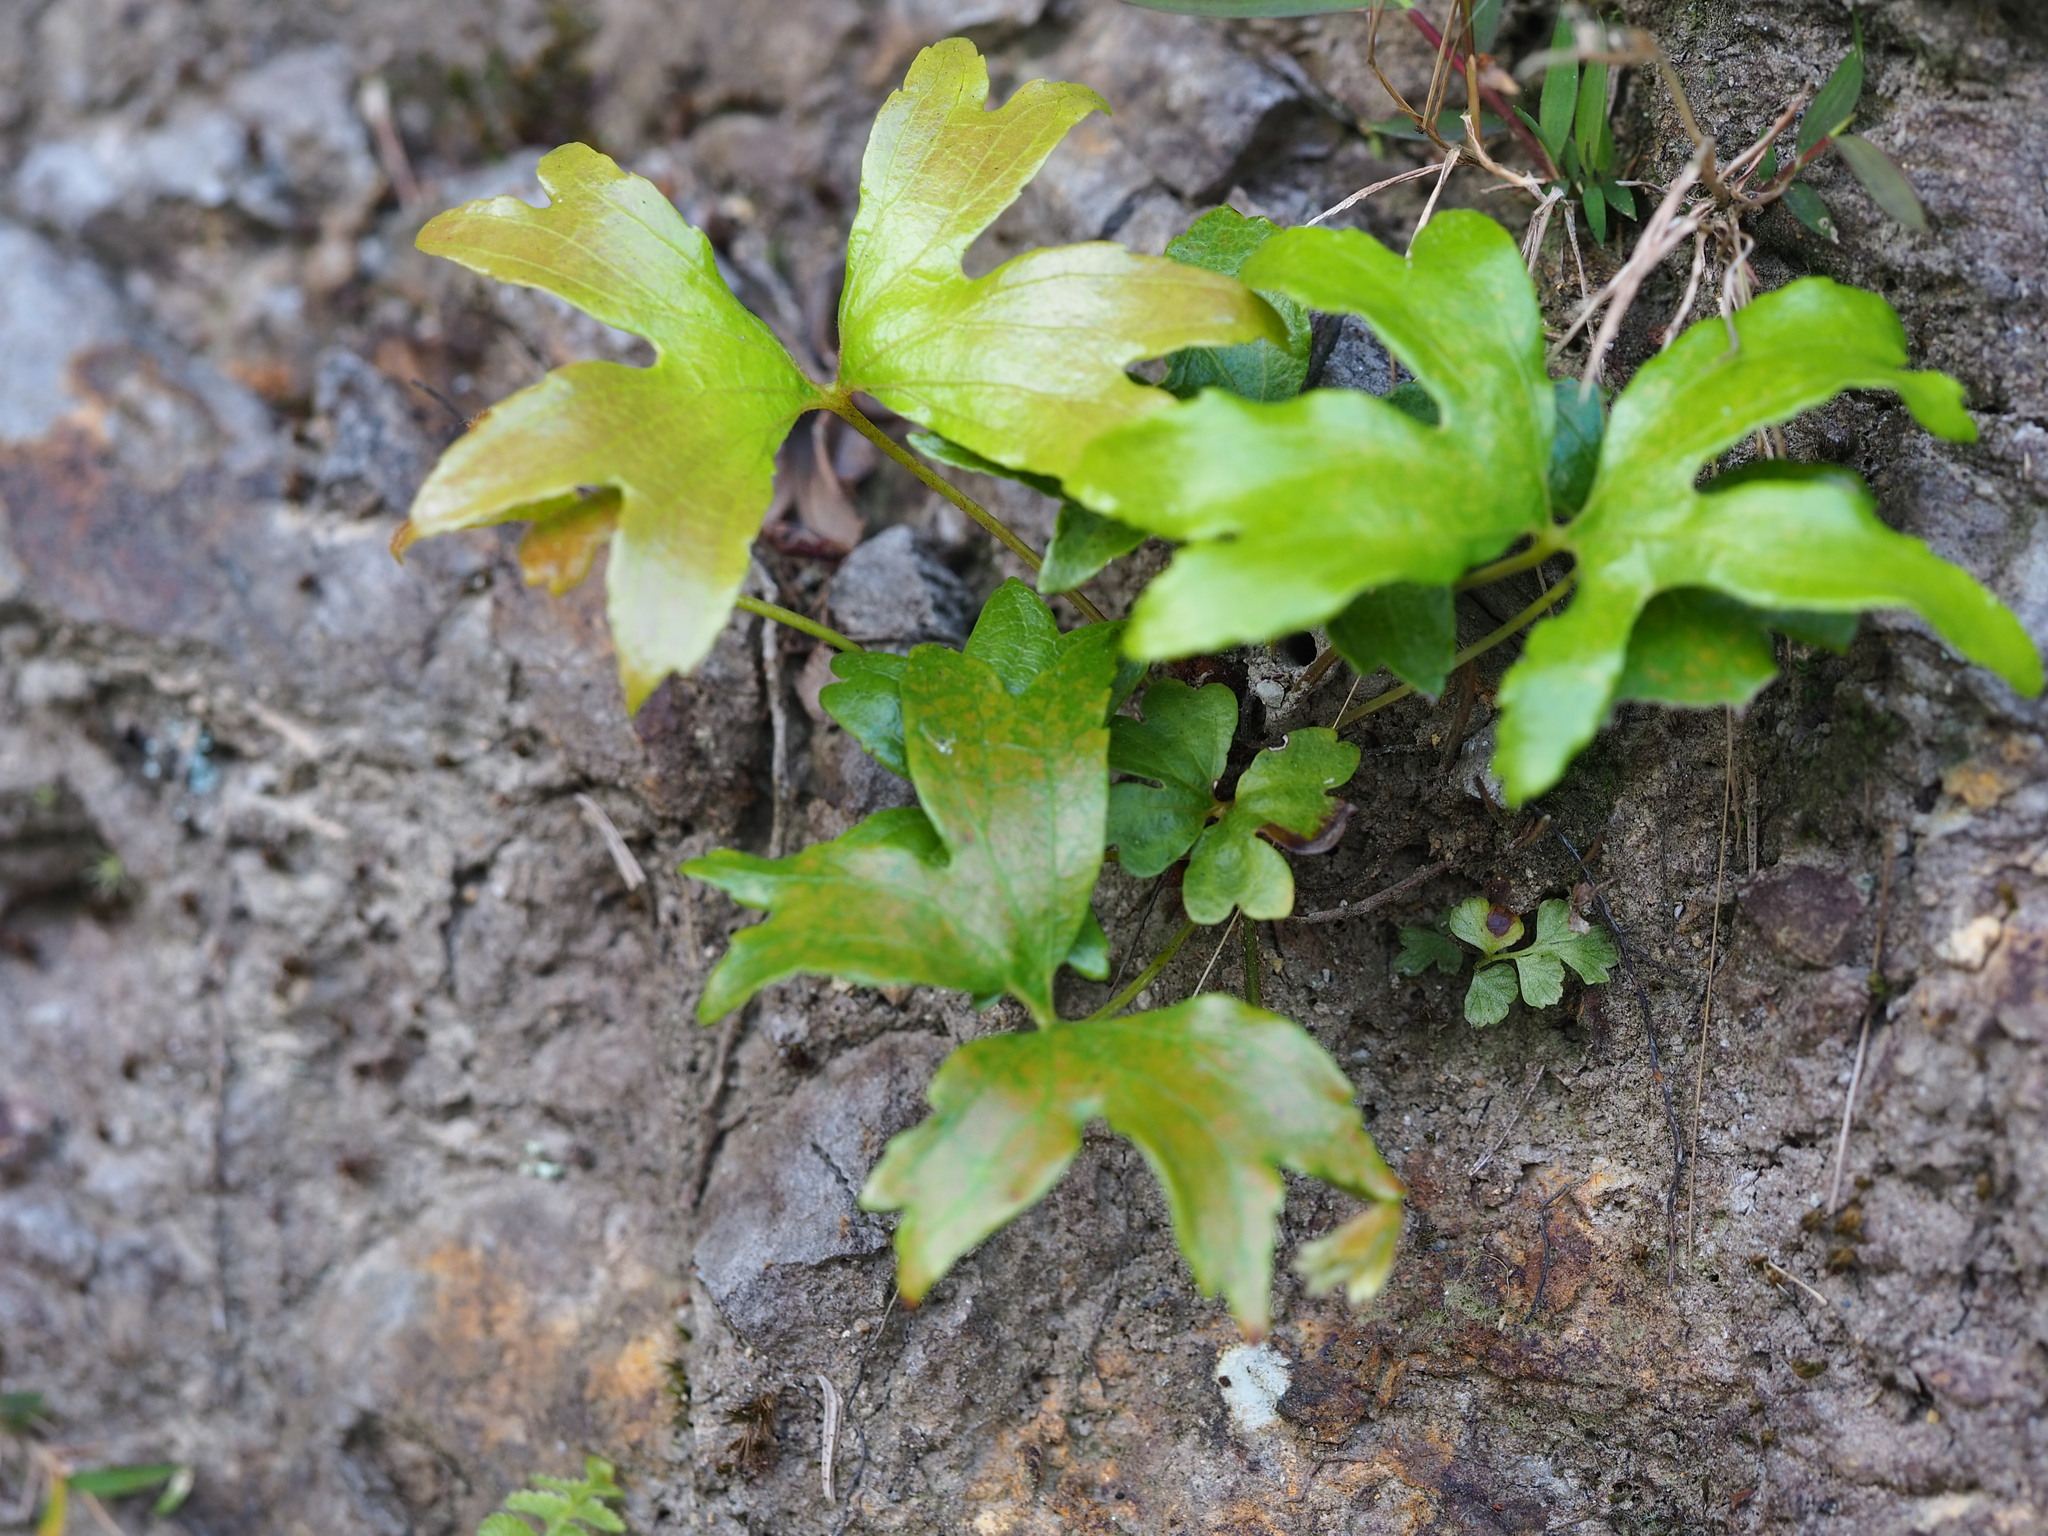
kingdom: Plantae
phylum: Tracheophyta
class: Polypodiopsida
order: Gleicheniales
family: Dipteridaceae
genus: Dipteris
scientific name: Dipteris conjugata
